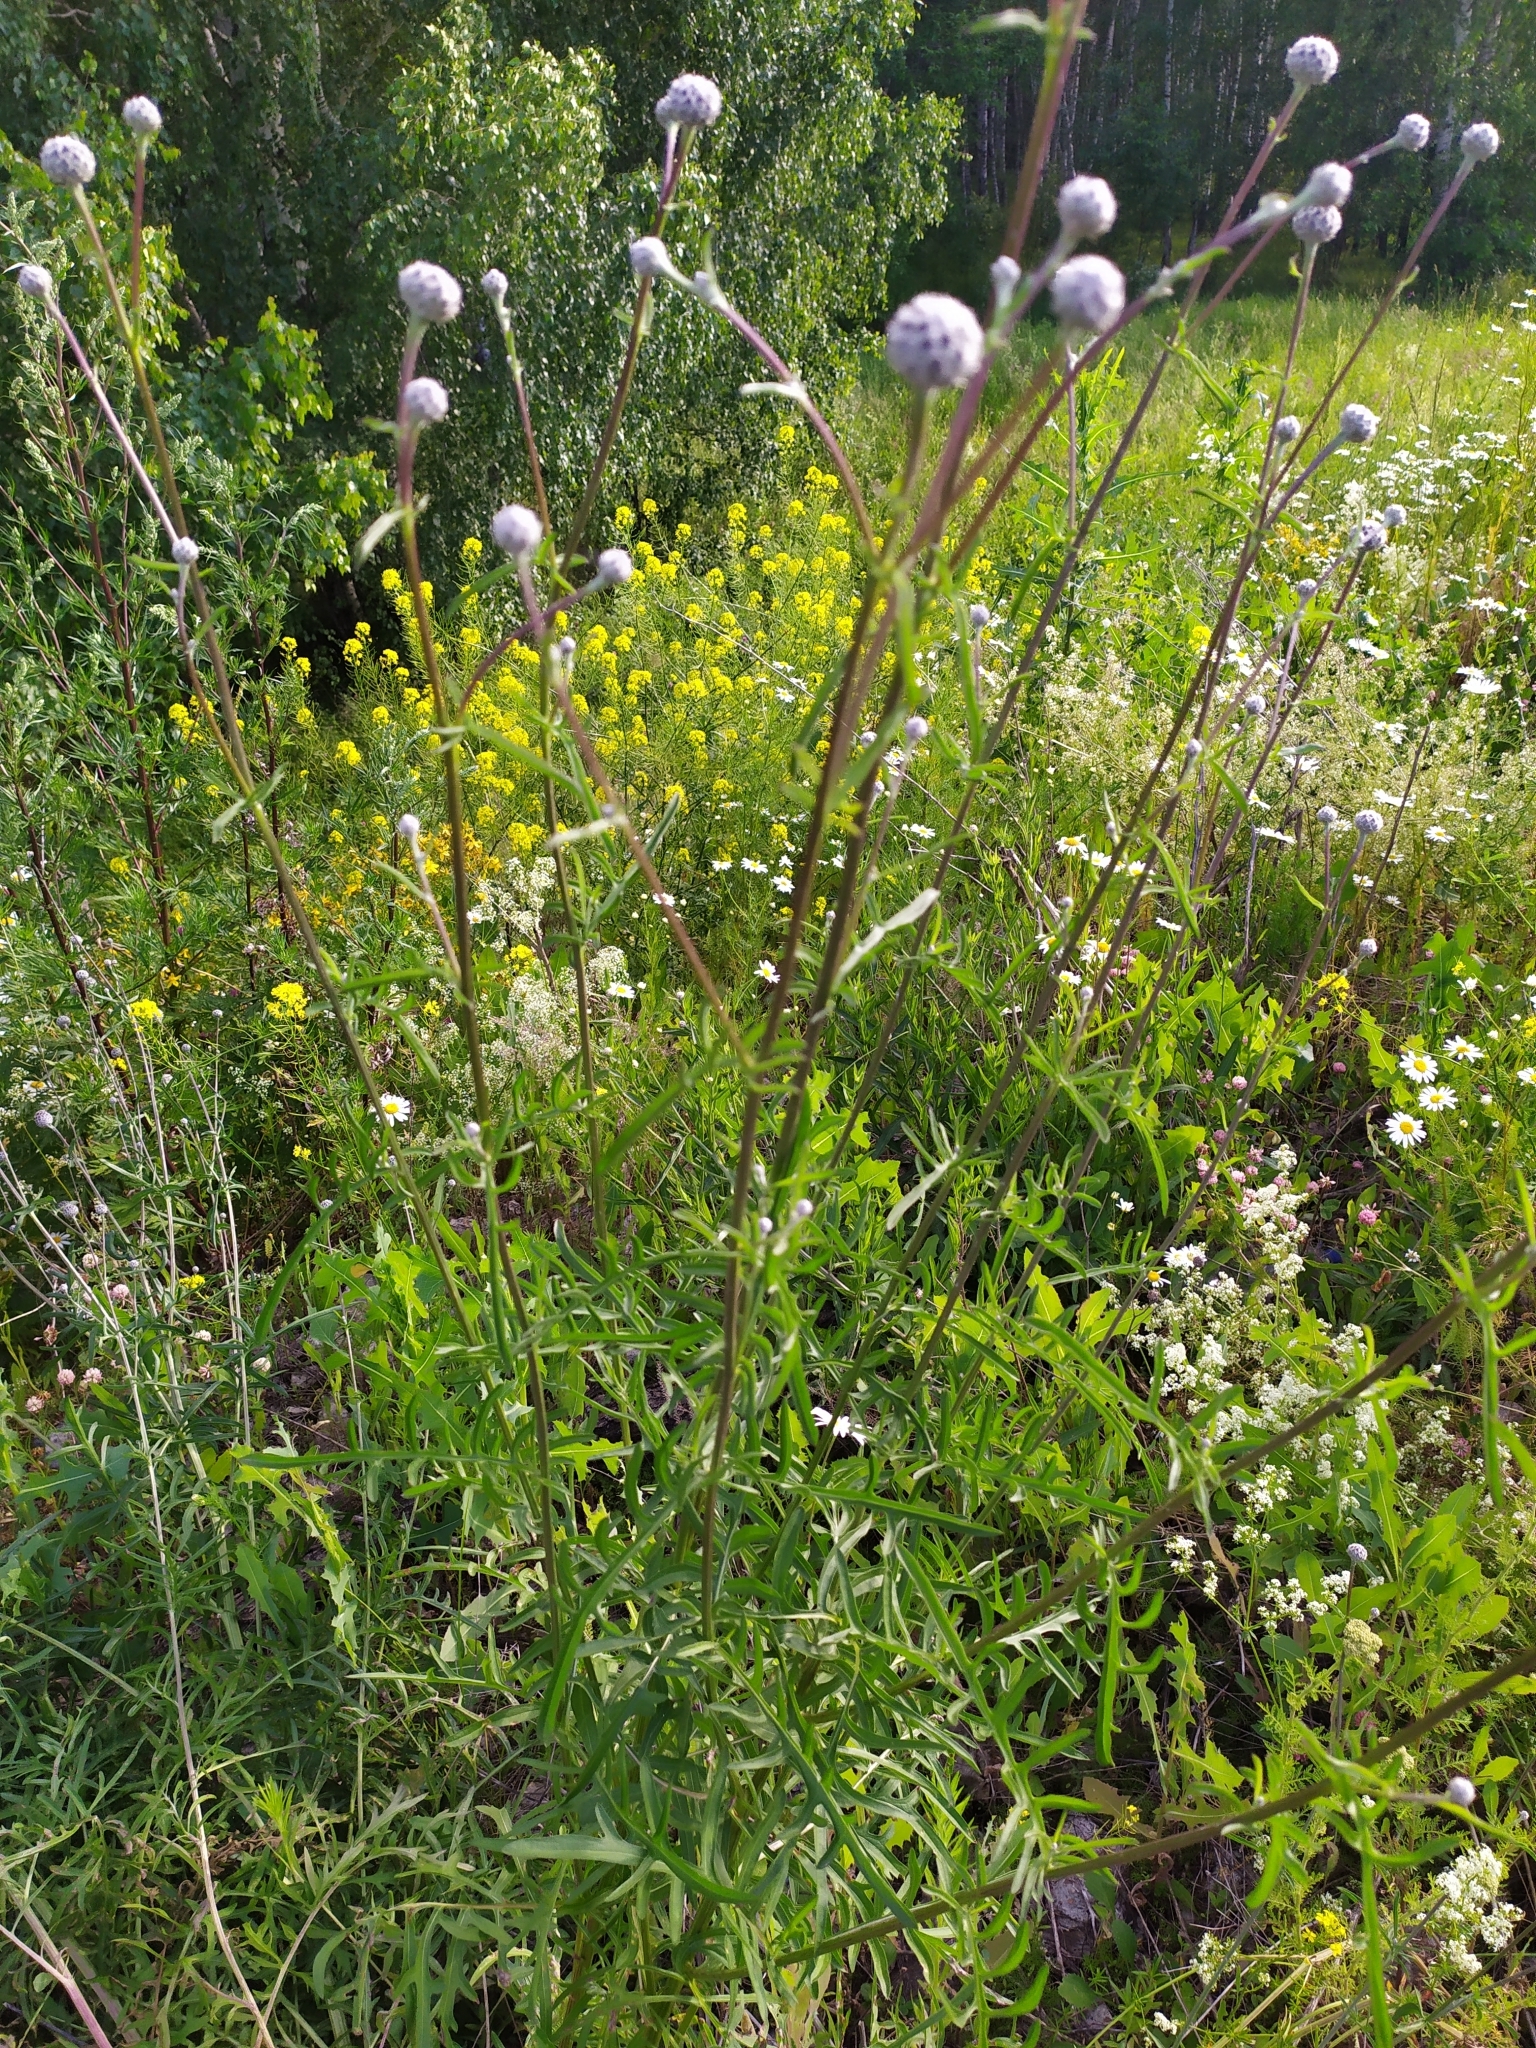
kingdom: Plantae
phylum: Tracheophyta
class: Magnoliopsida
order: Asterales
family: Asteraceae
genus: Centaurea
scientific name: Centaurea scabiosa
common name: Greater knapweed
